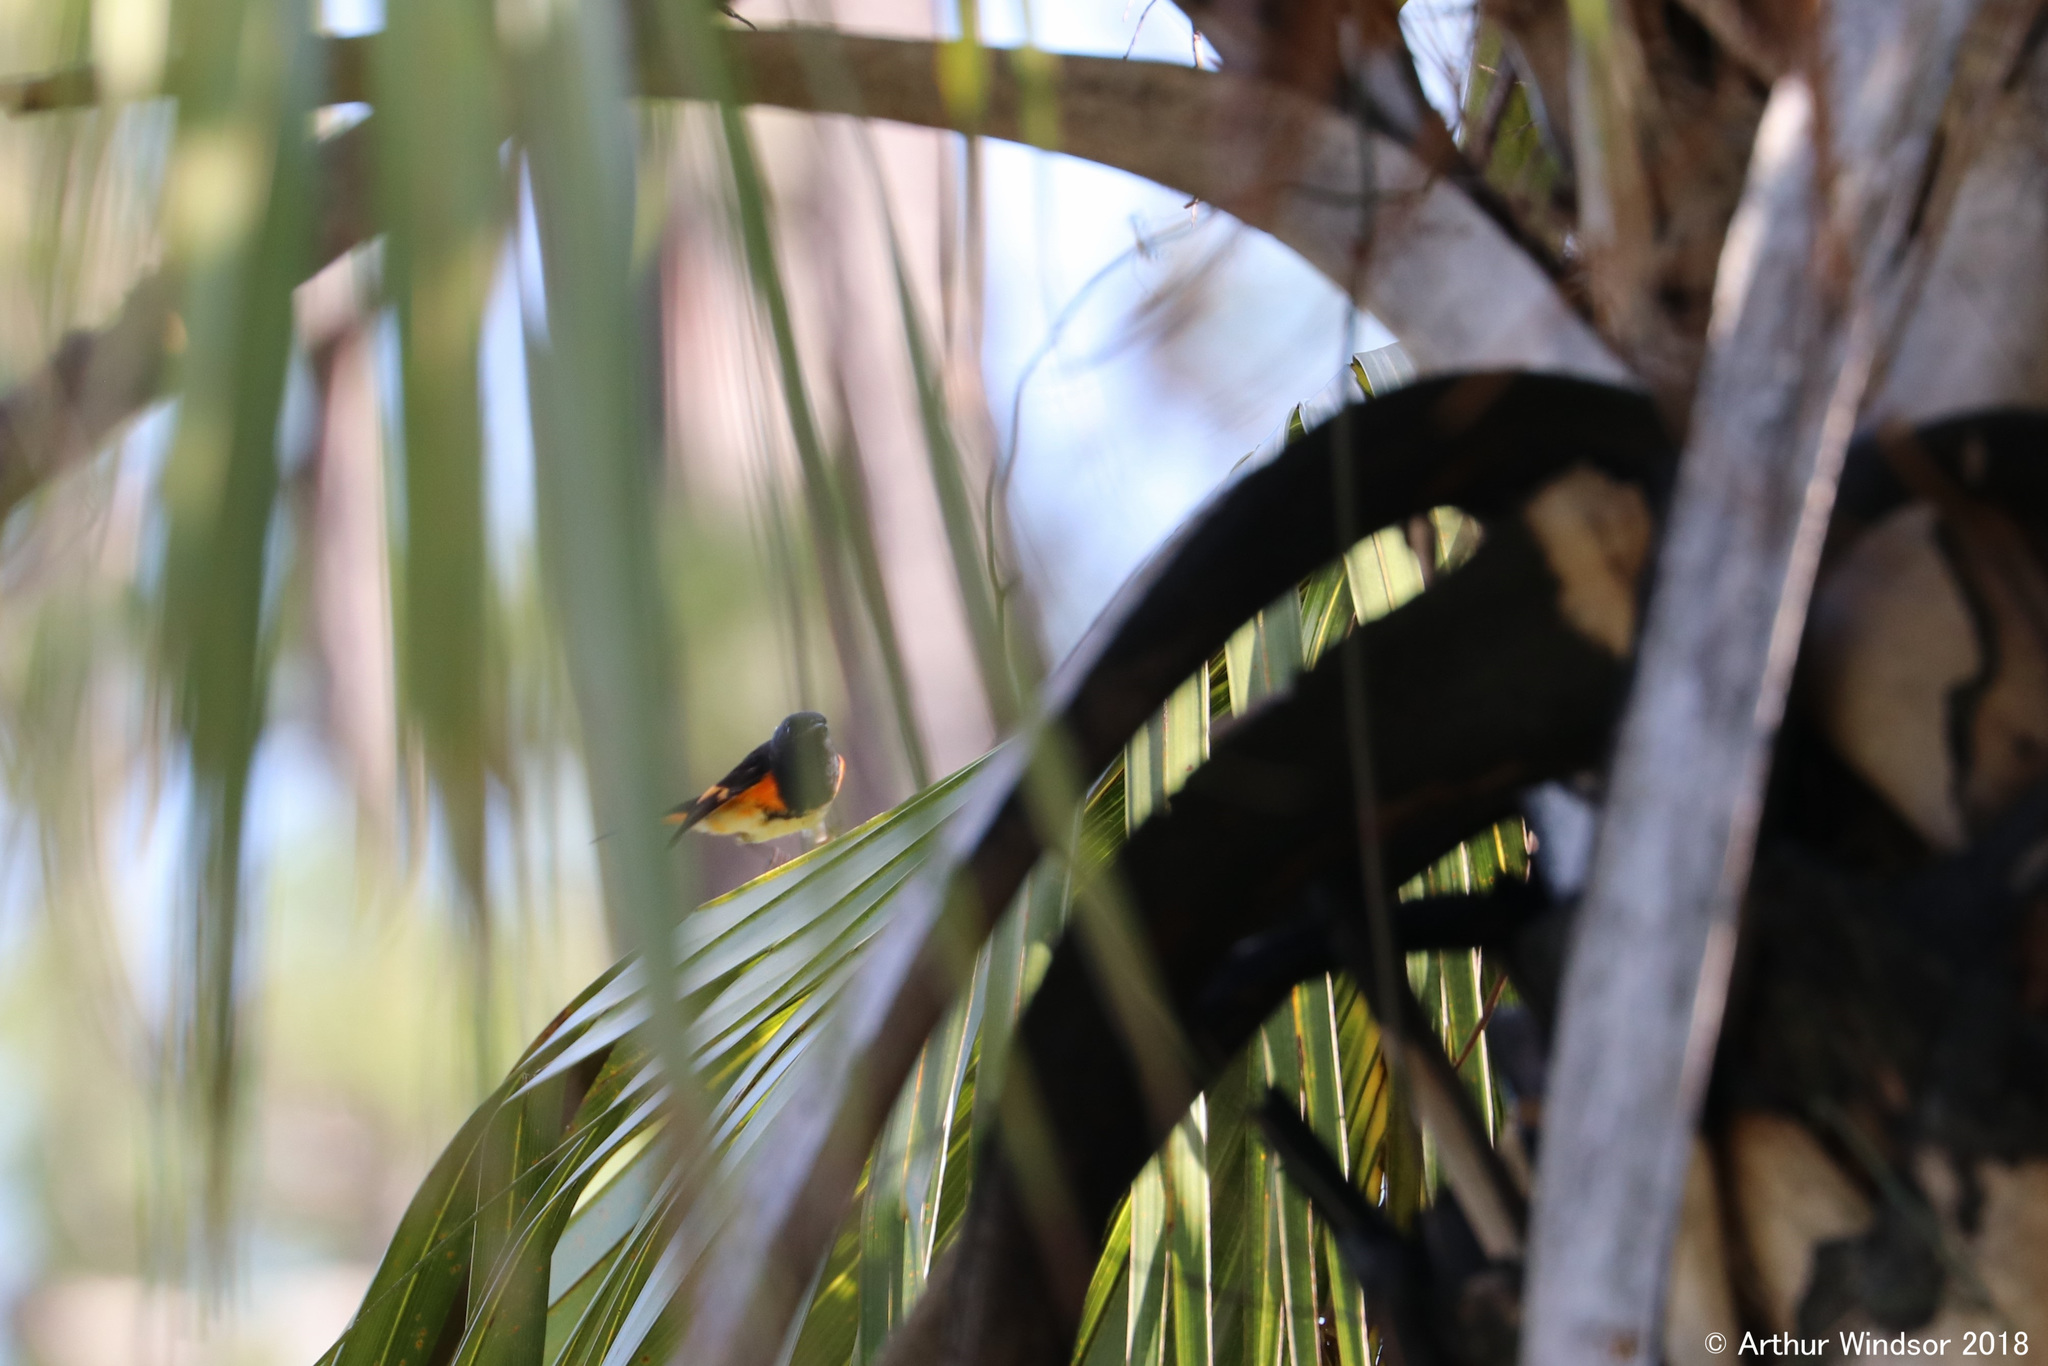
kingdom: Animalia
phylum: Chordata
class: Aves
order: Passeriformes
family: Parulidae
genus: Setophaga
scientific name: Setophaga ruticilla
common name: American redstart
